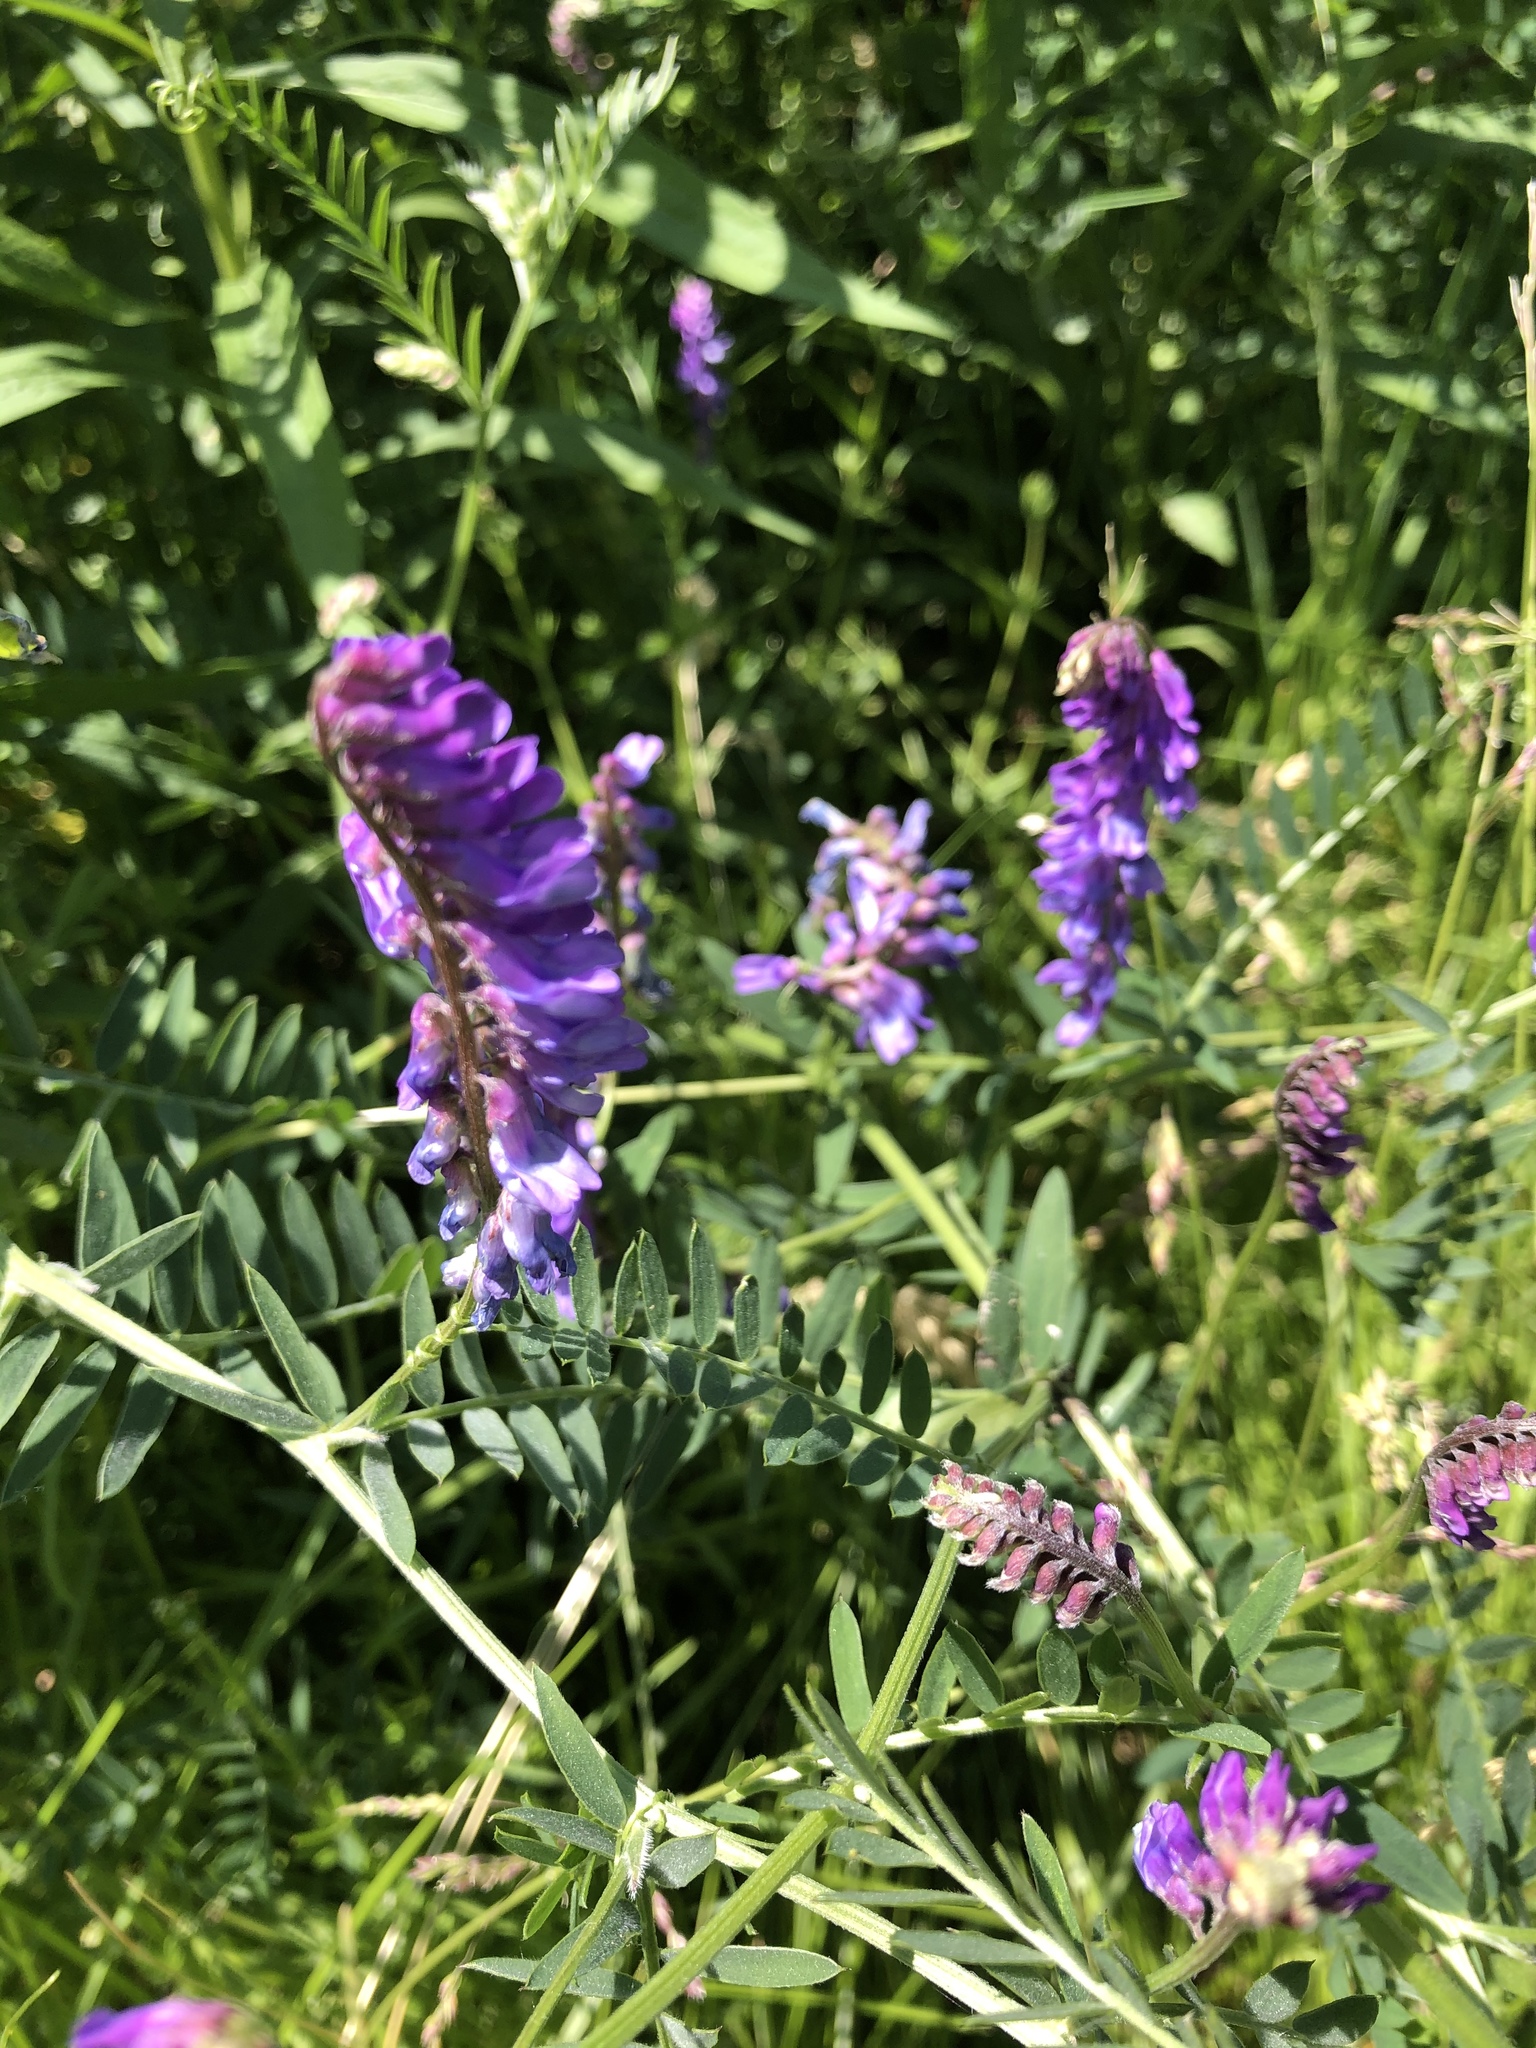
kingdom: Plantae
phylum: Tracheophyta
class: Magnoliopsida
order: Fabales
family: Fabaceae
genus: Vicia
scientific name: Vicia cracca
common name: Bird vetch
